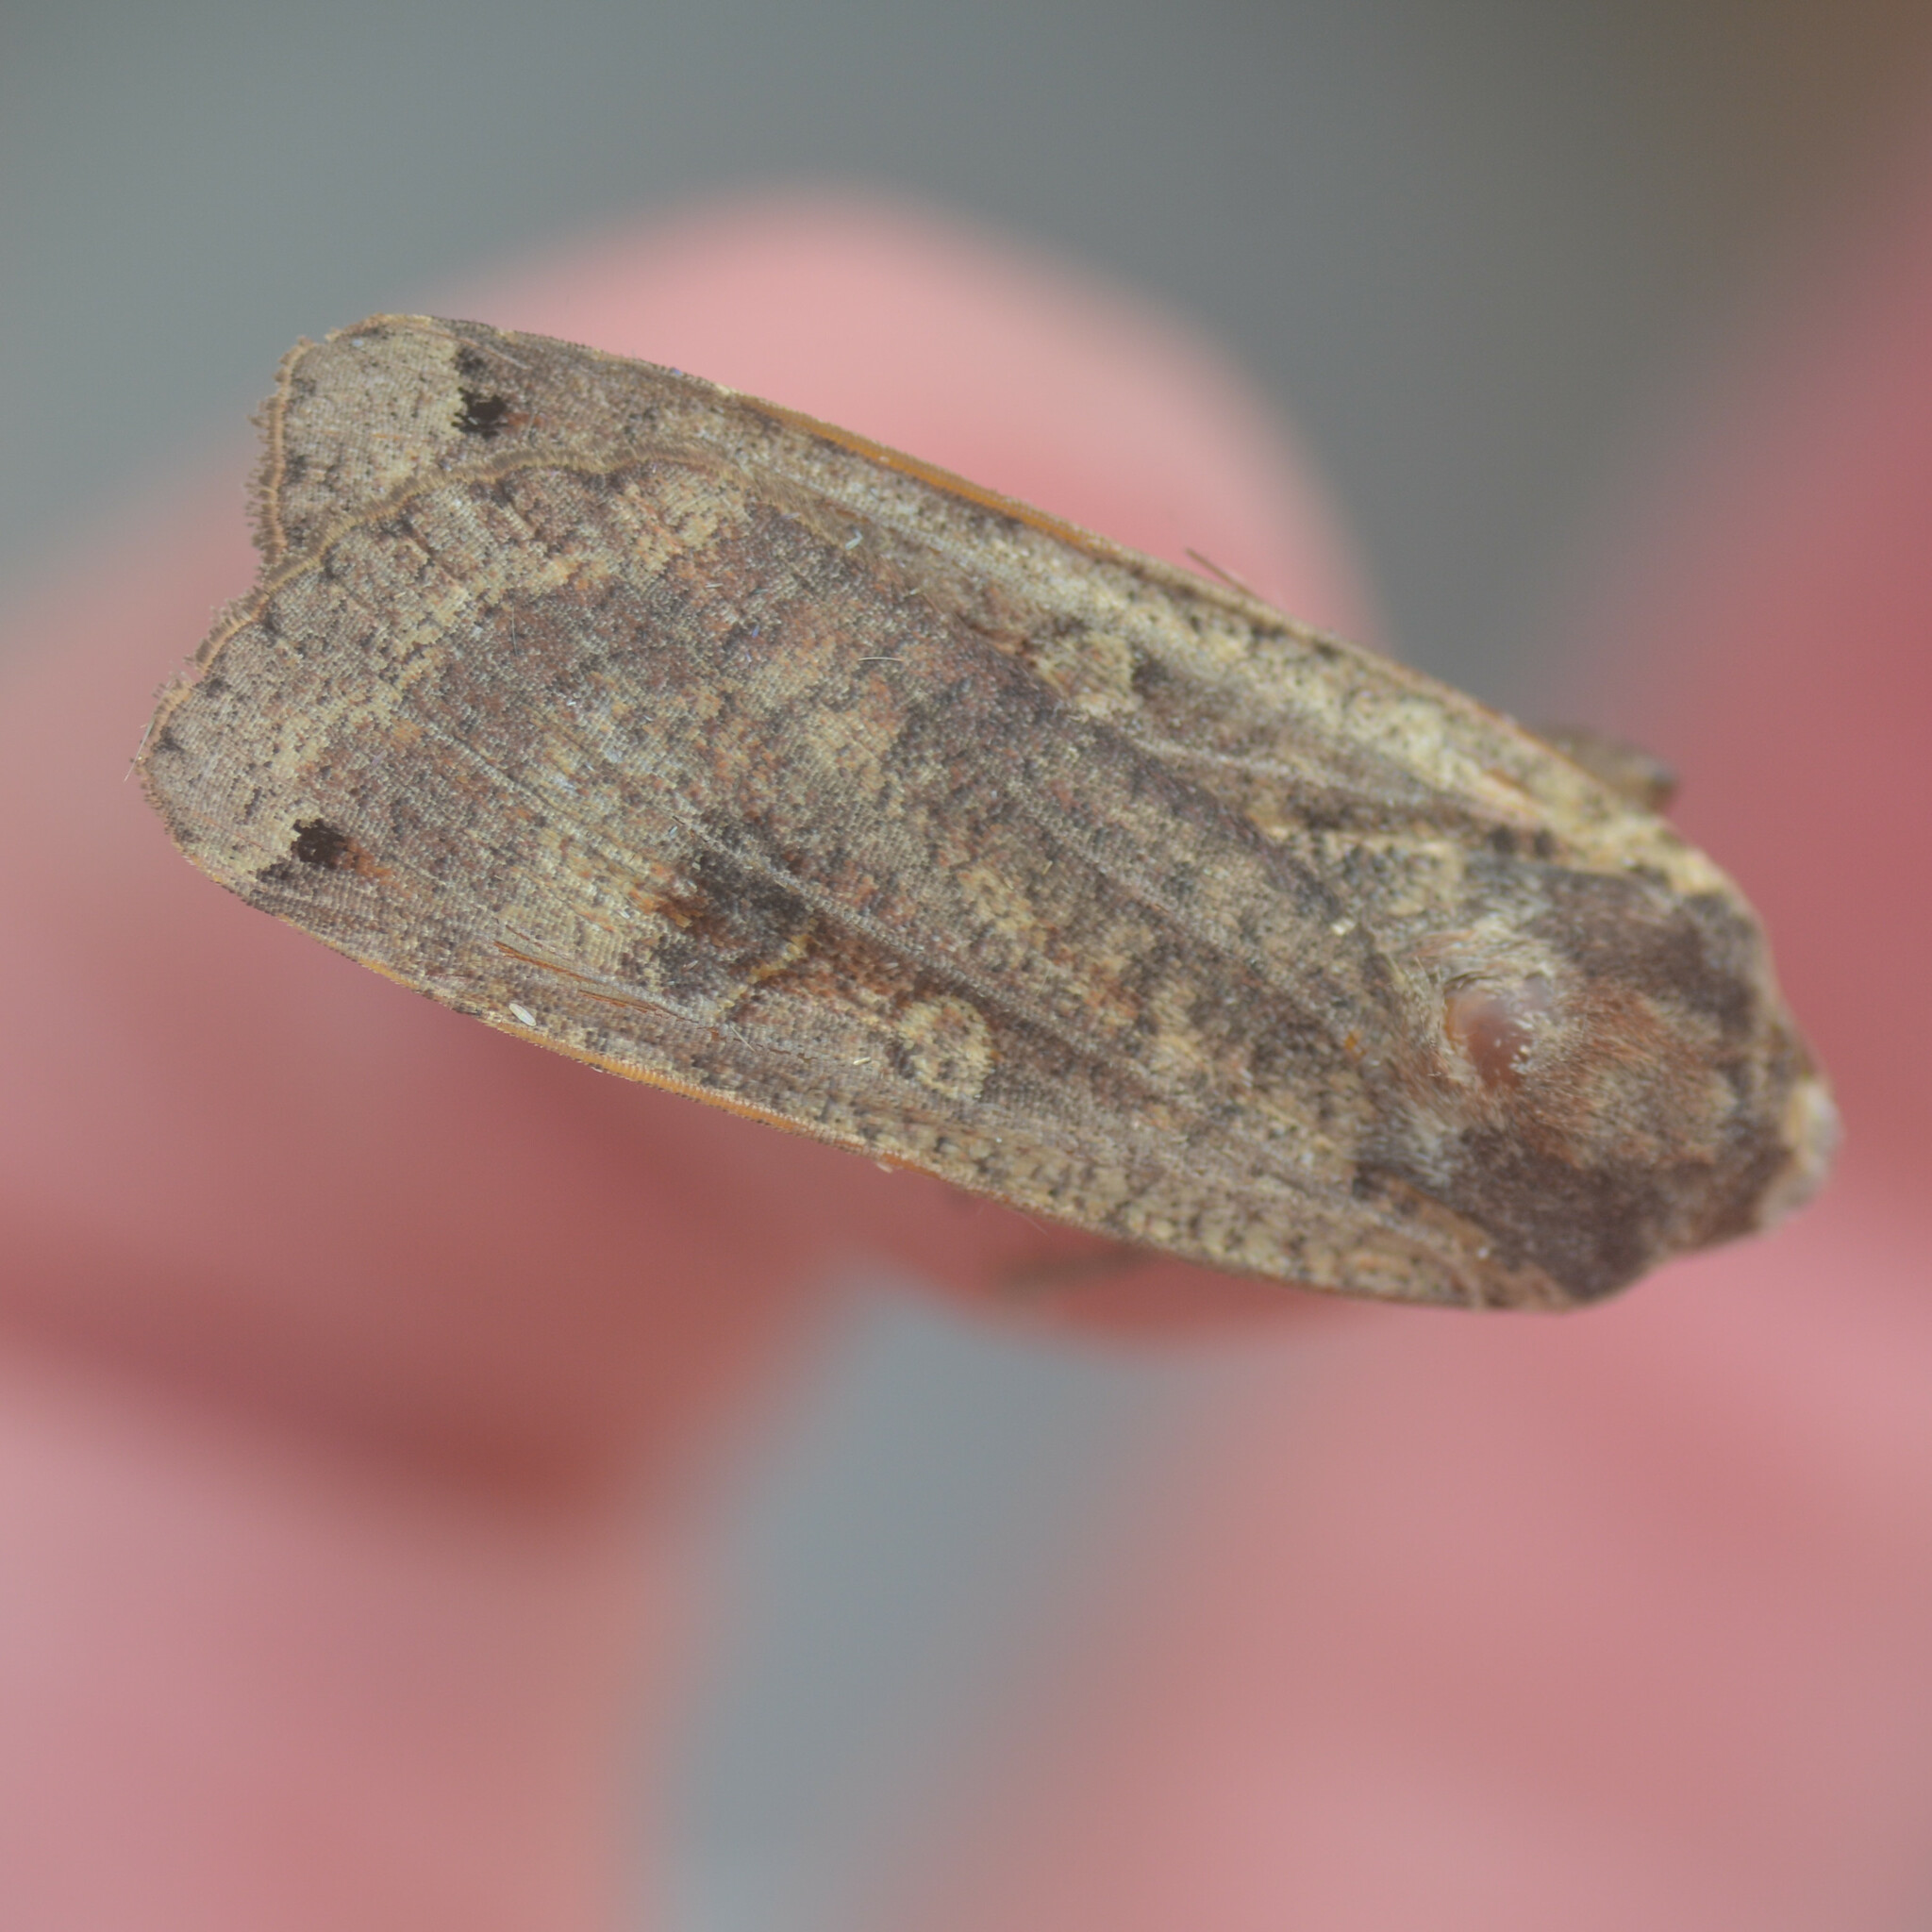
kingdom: Animalia
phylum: Arthropoda
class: Insecta
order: Lepidoptera
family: Noctuidae
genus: Noctua
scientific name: Noctua pronuba
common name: Large yellow underwing
